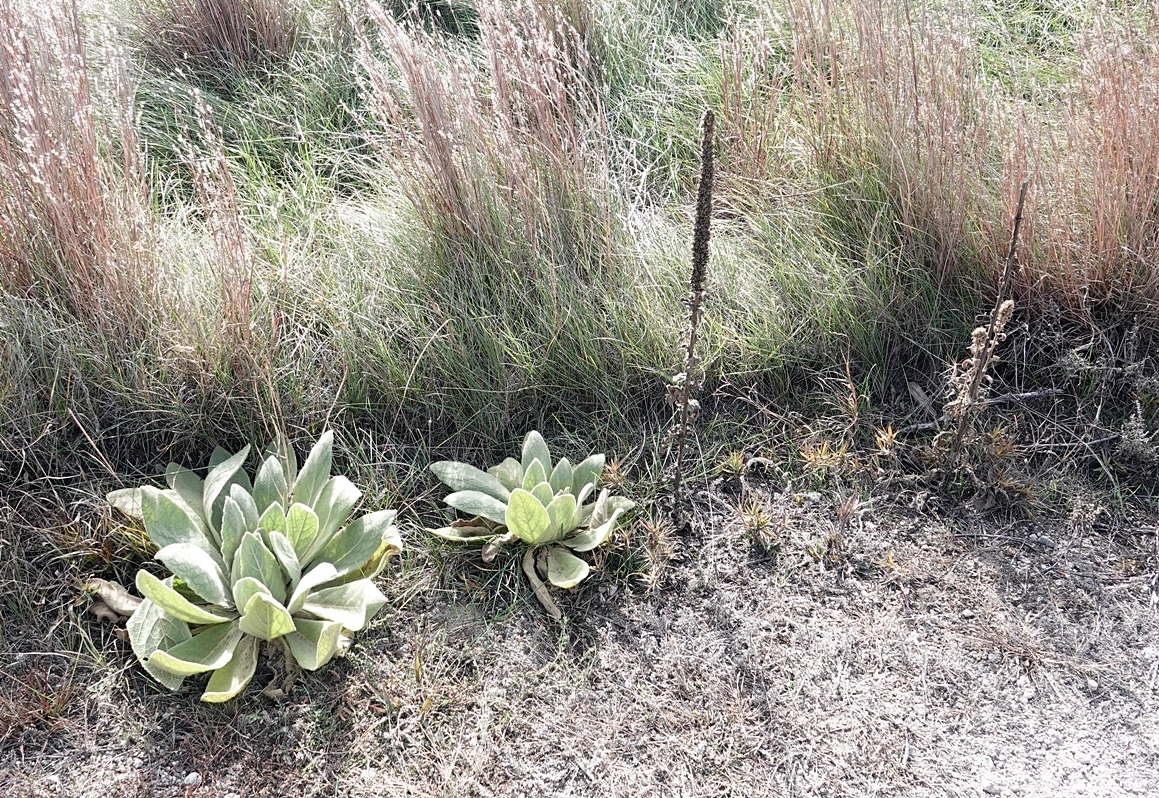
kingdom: Plantae
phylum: Tracheophyta
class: Magnoliopsida
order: Lamiales
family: Scrophulariaceae
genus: Verbascum
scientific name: Verbascum thapsus
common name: Common mullein
